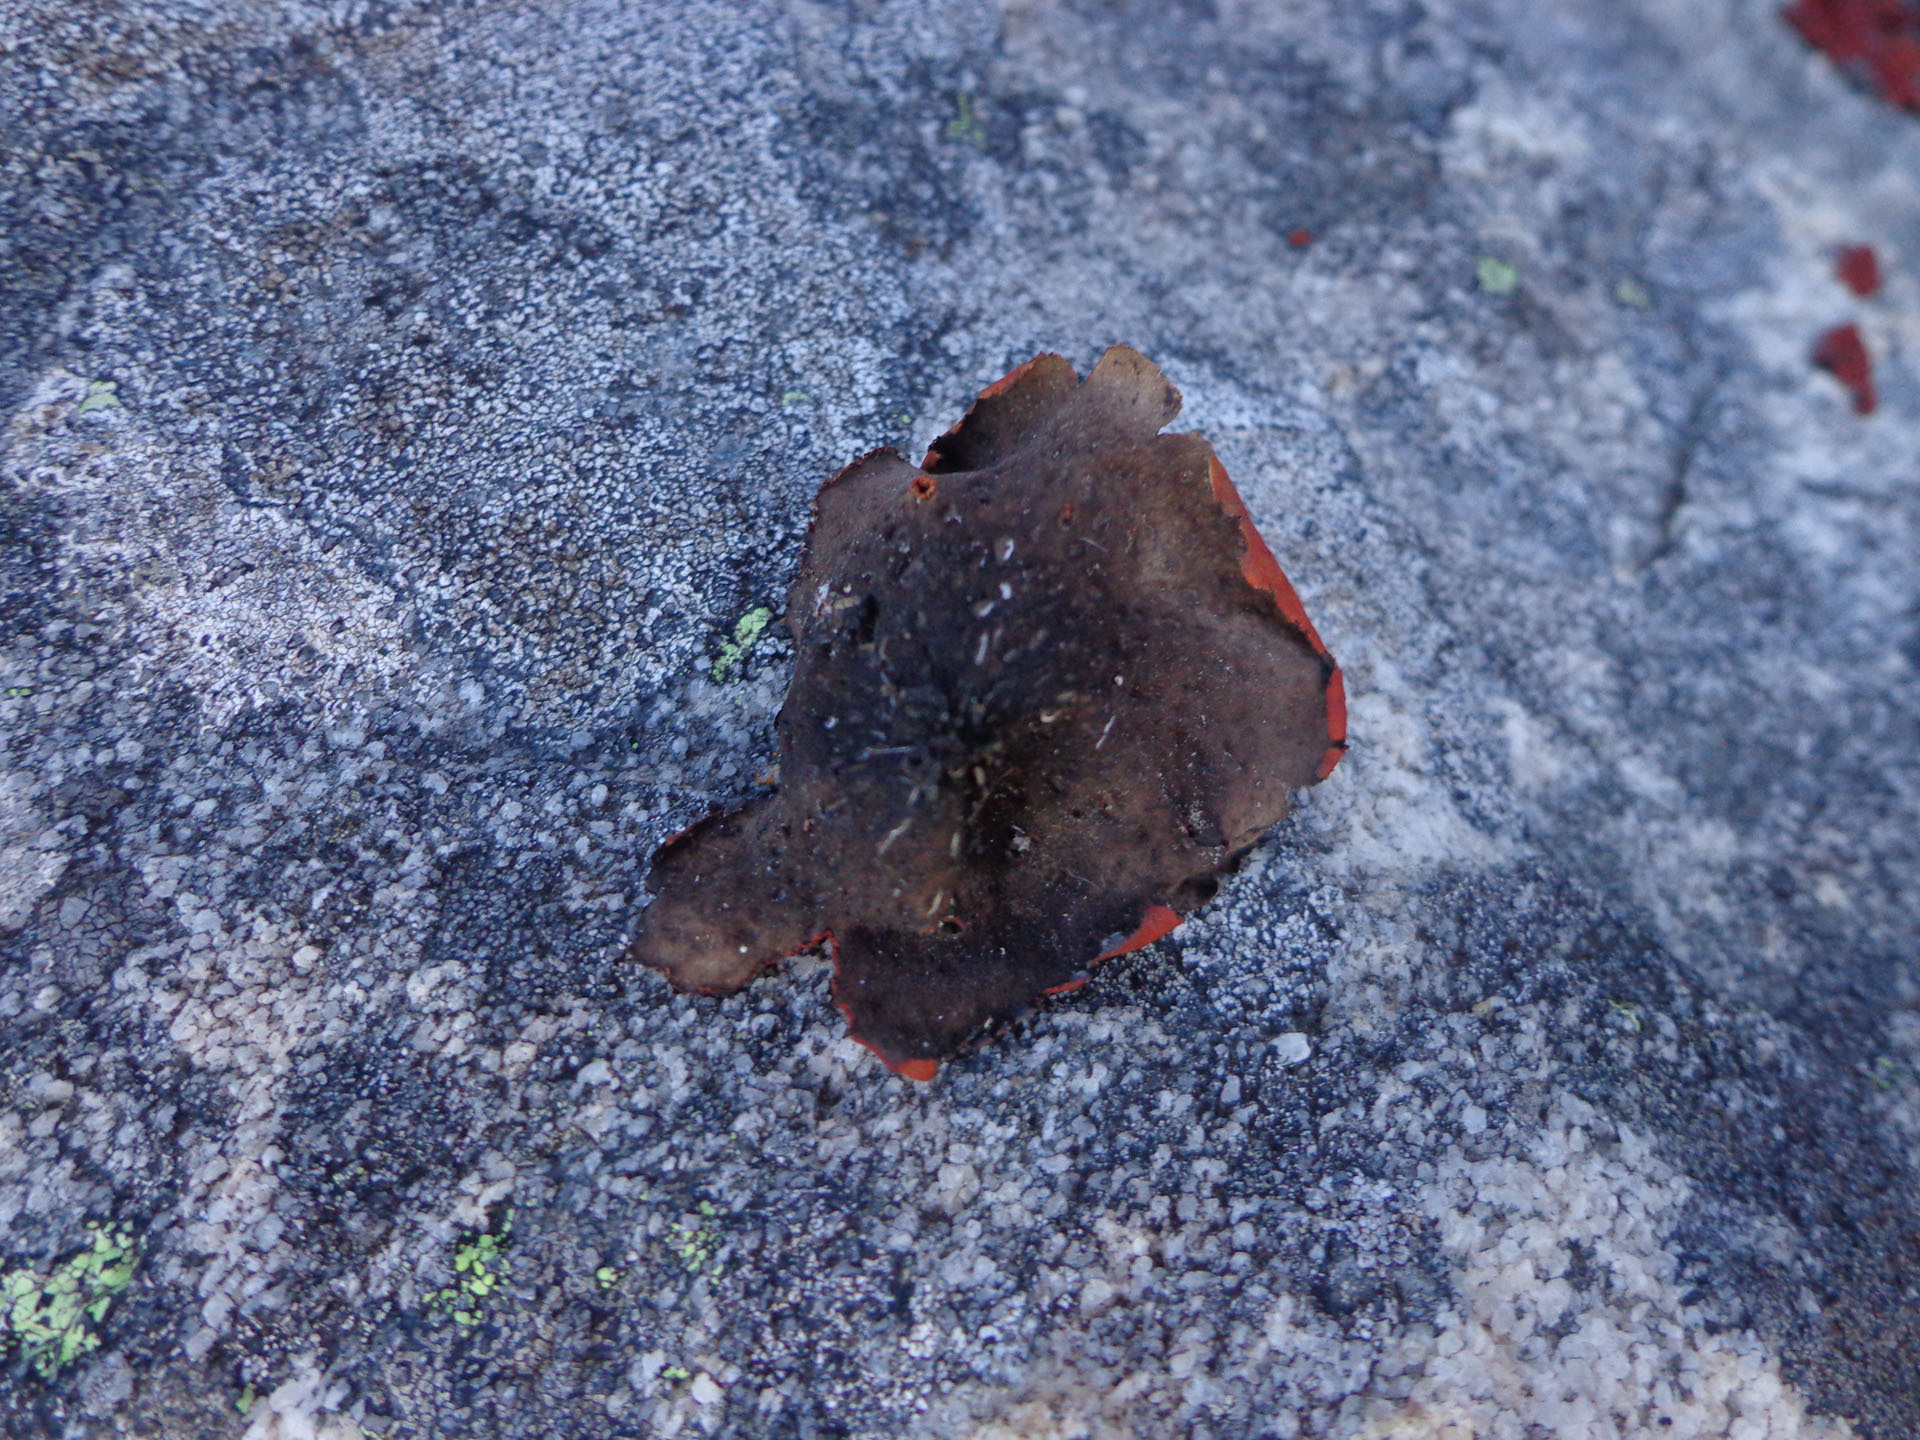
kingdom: Fungi
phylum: Ascomycota
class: Lecanoromycetes
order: Umbilicariales
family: Umbilicariaceae
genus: Lasallia
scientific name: Lasallia rubiginosa
